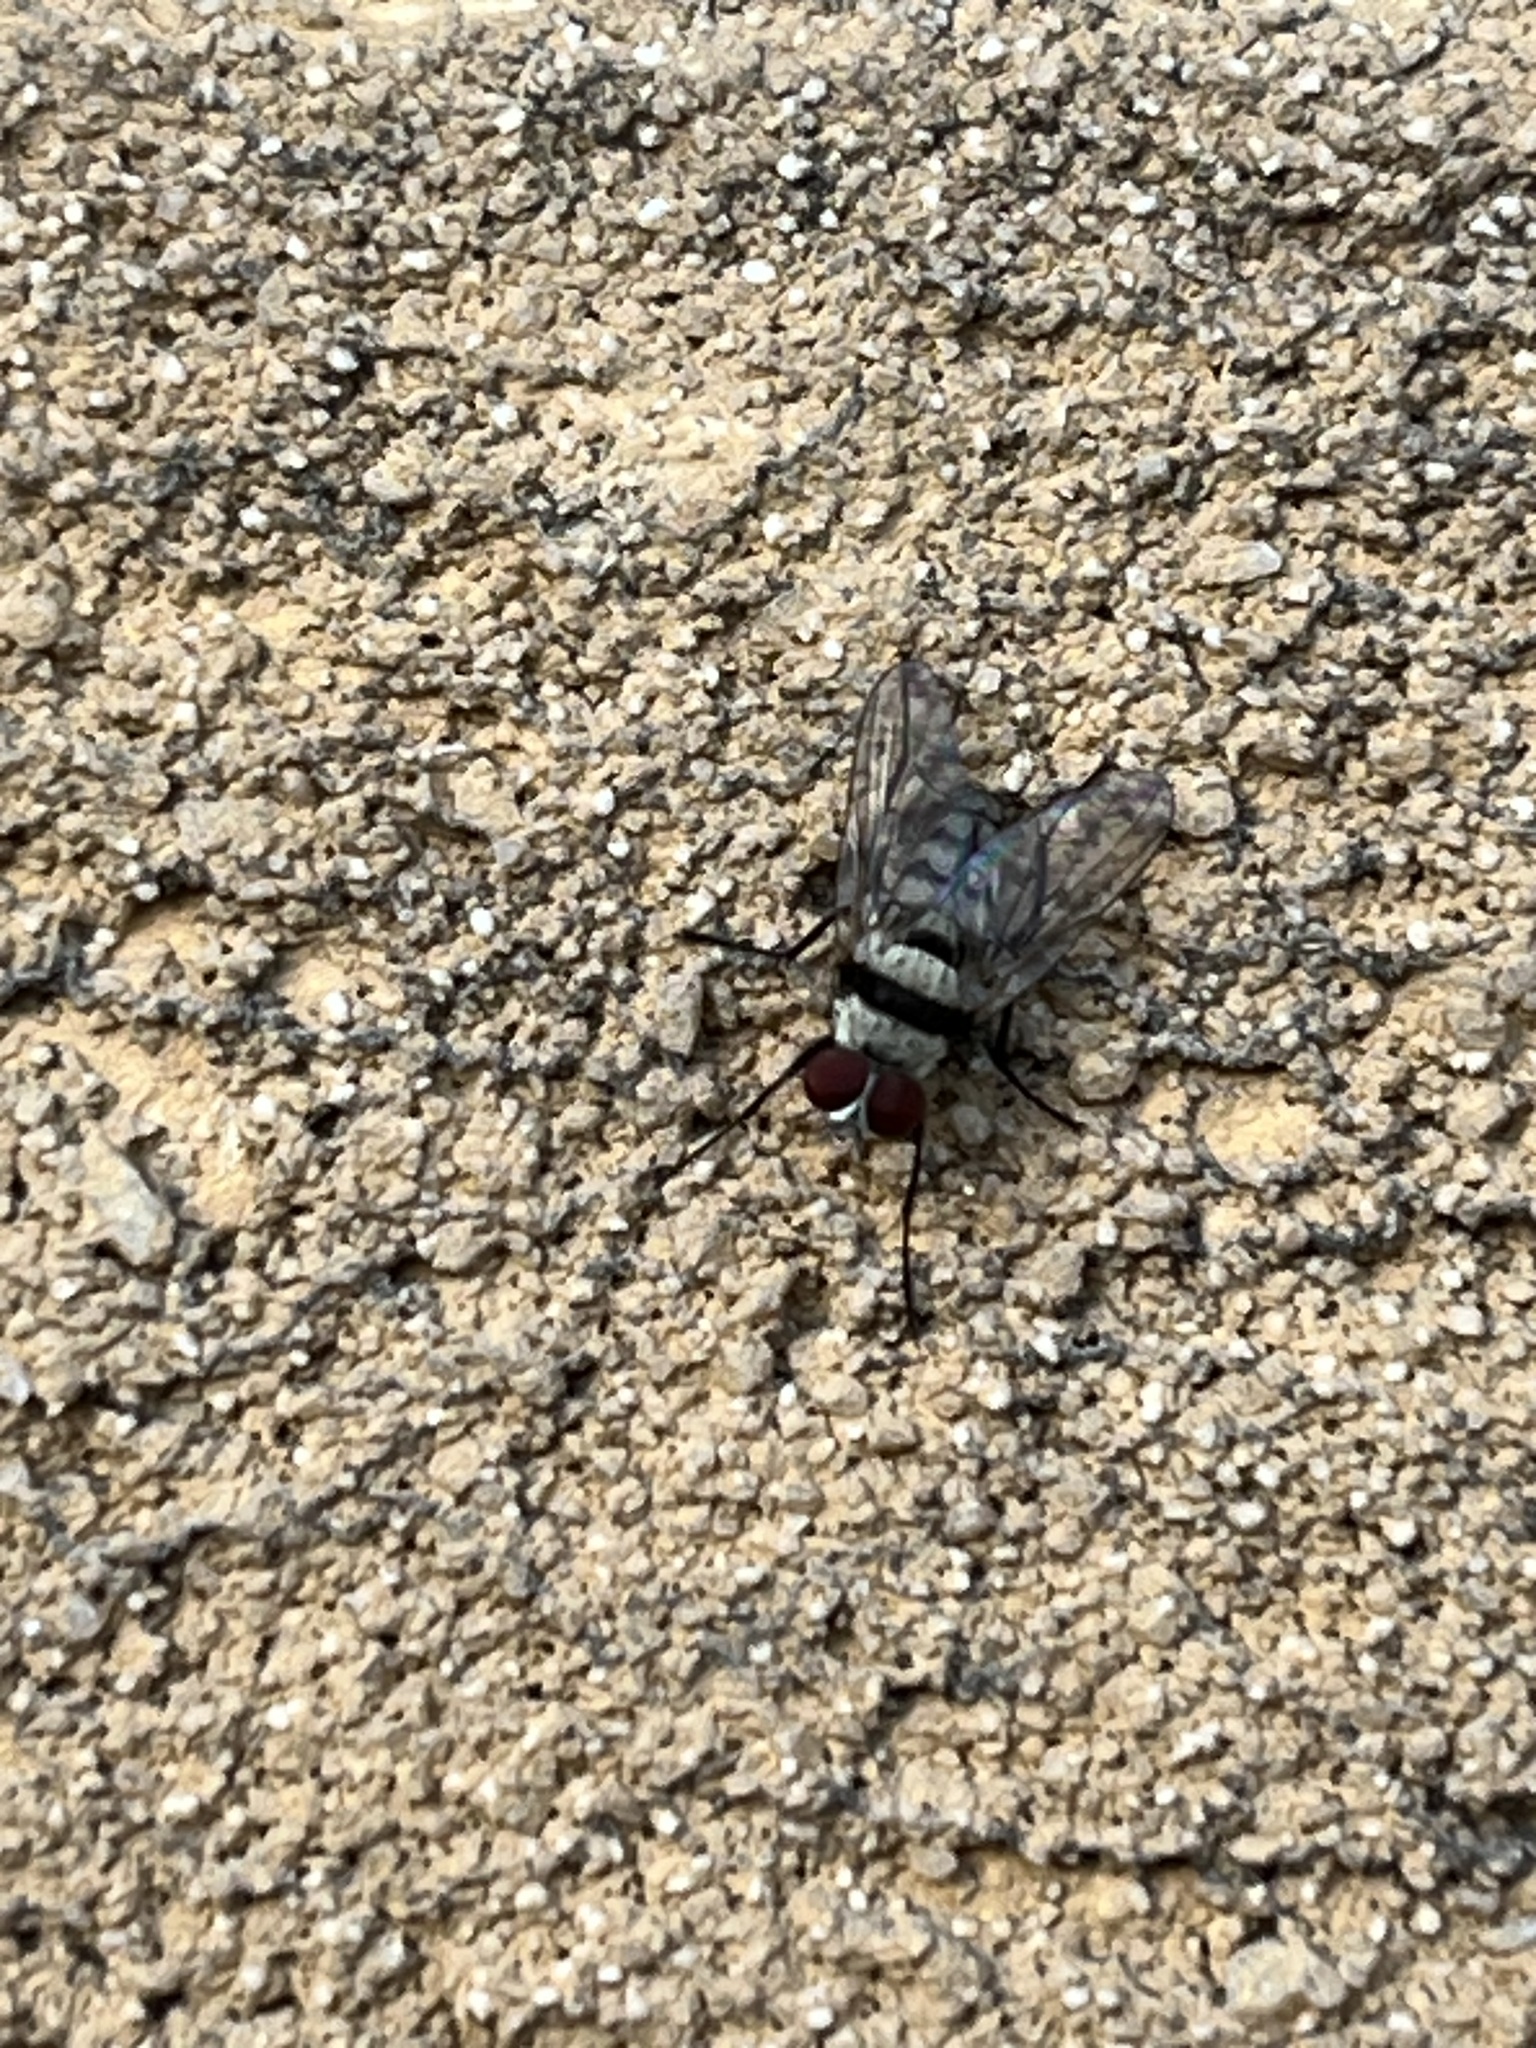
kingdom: Animalia
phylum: Arthropoda
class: Insecta
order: Diptera
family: Anthomyiidae
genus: Anthomyia
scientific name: Anthomyia illocata
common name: Fly
